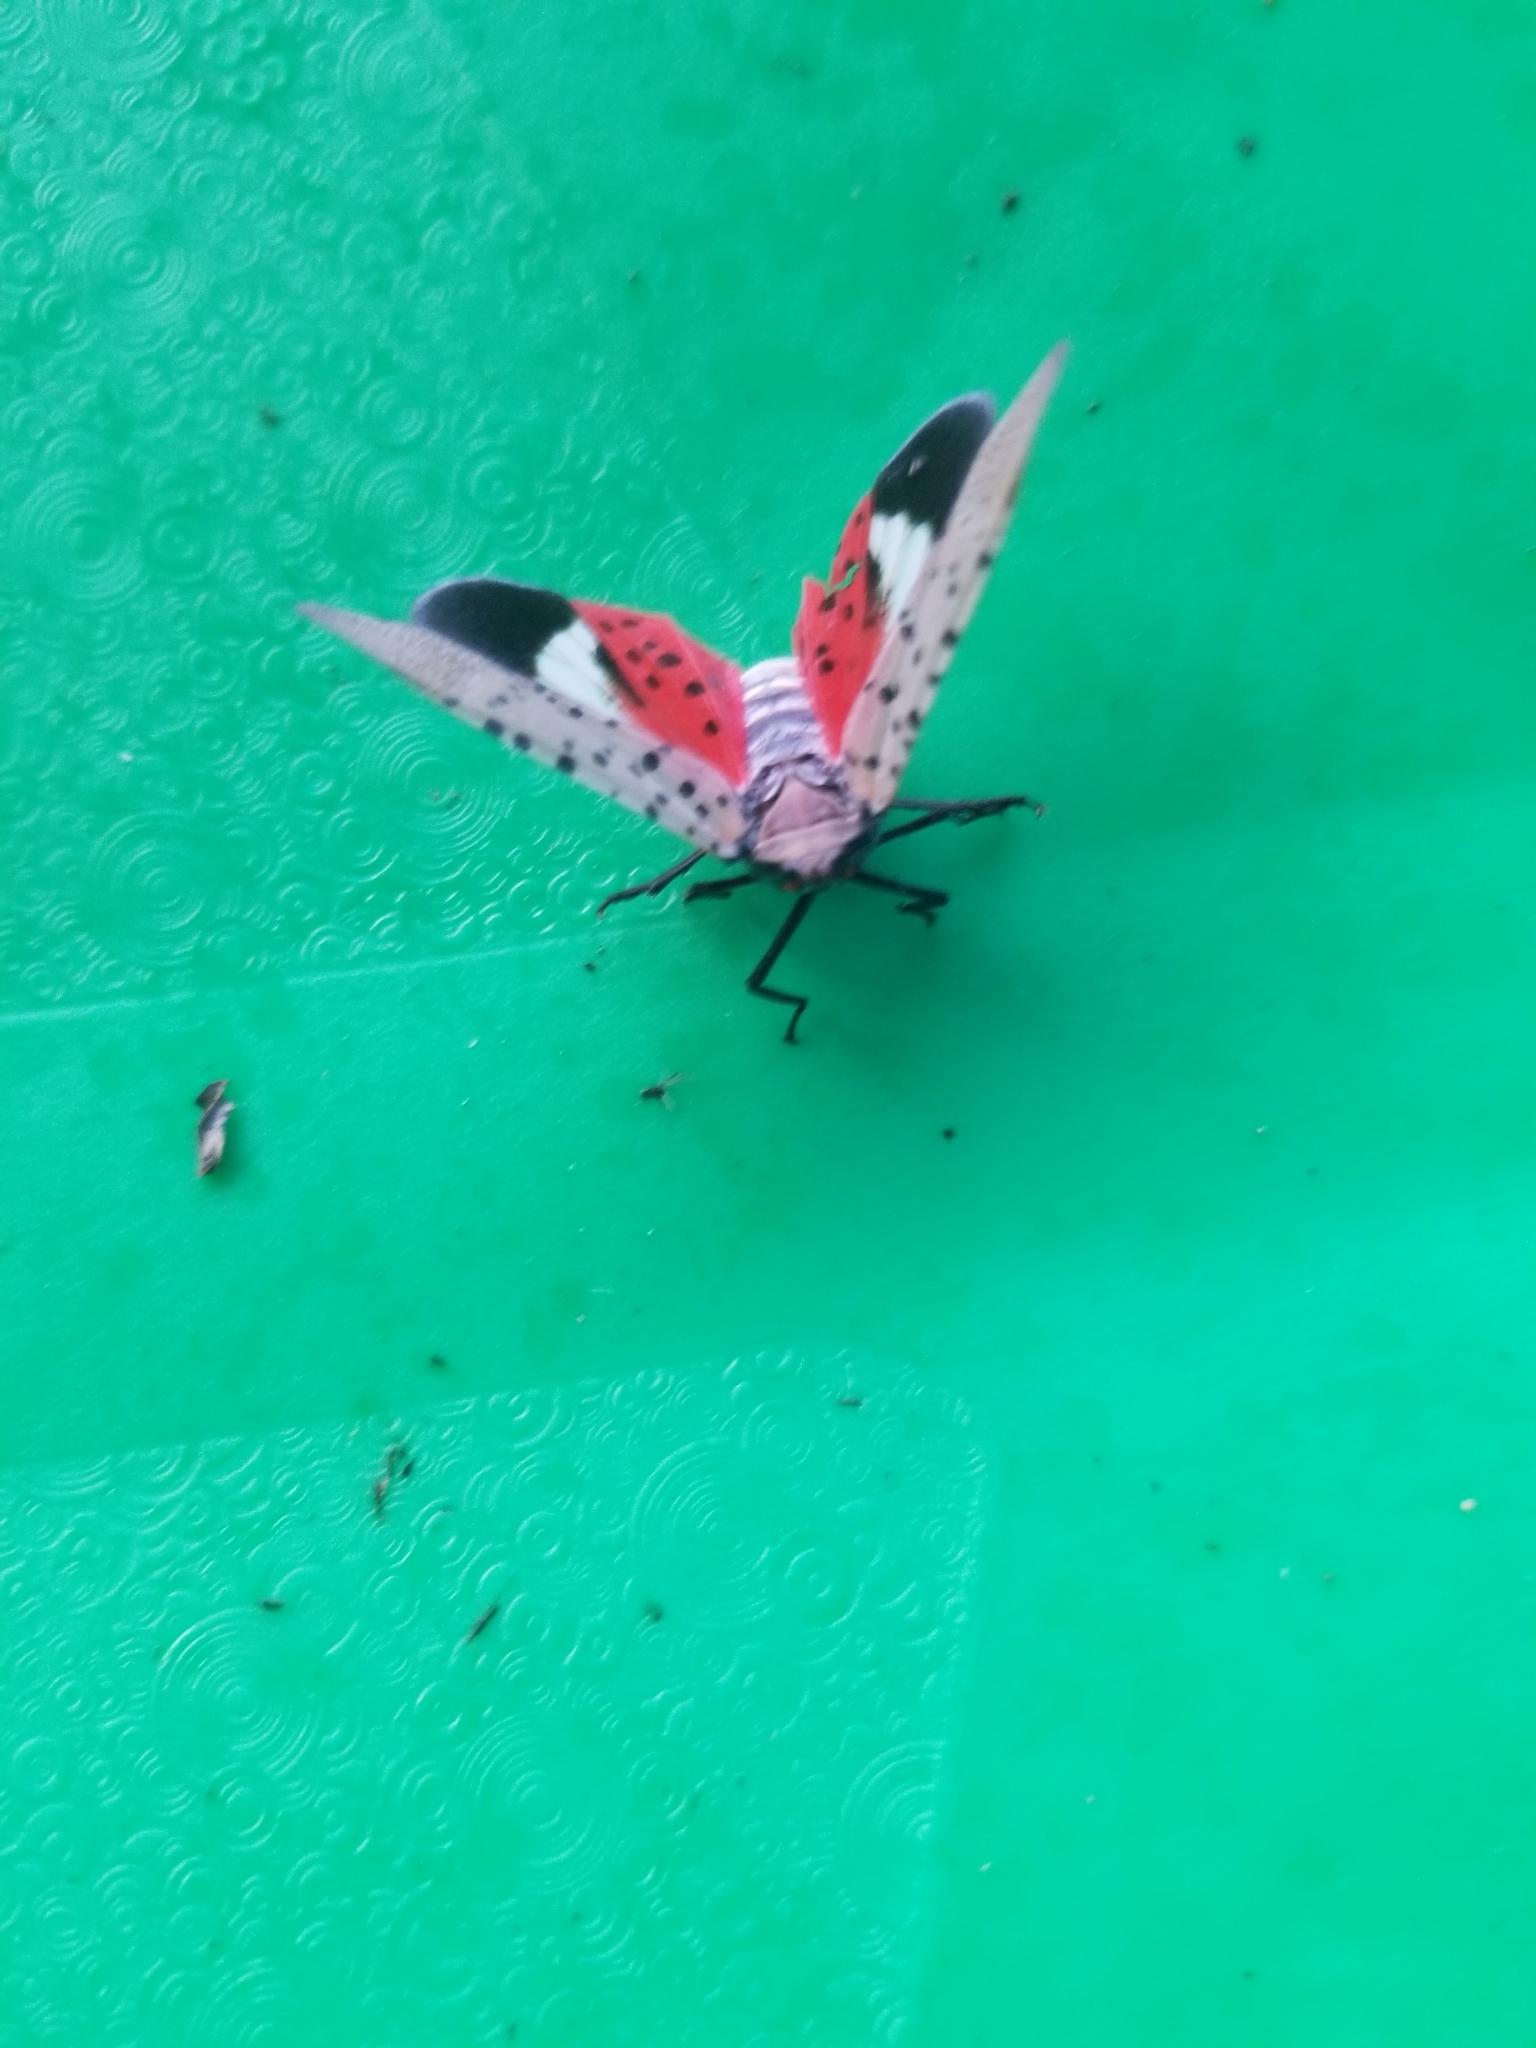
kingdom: Animalia
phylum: Arthropoda
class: Insecta
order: Hemiptera
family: Fulgoridae
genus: Lycorma
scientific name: Lycorma delicatula
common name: Spotted lanternfly
